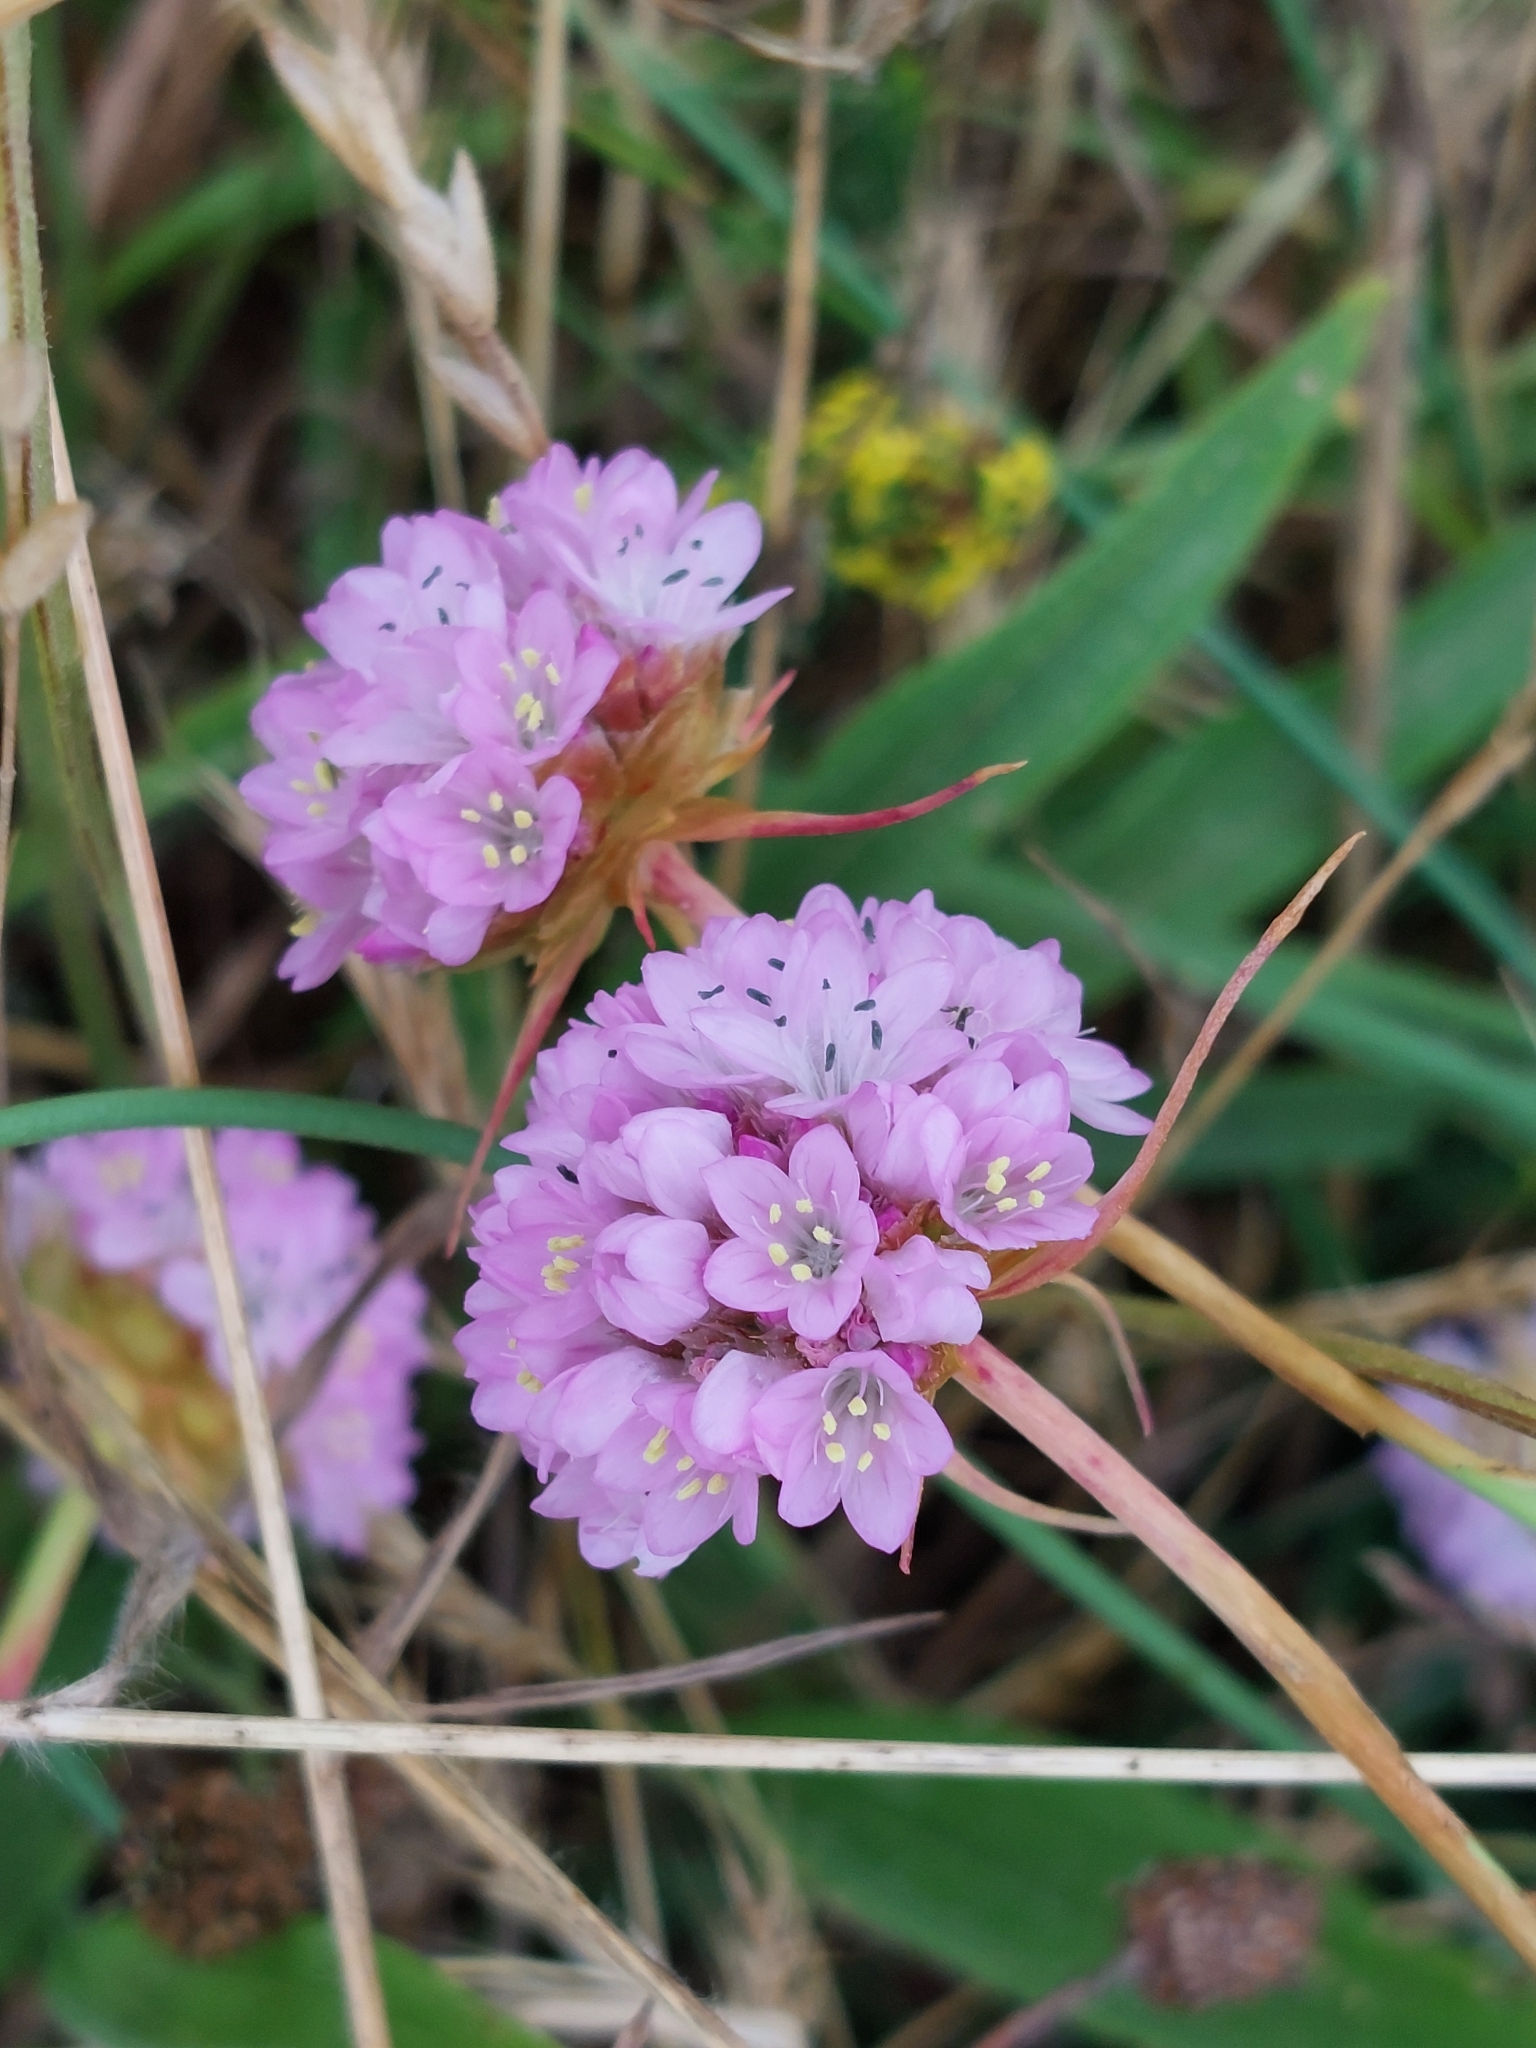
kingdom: Plantae
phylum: Tracheophyta
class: Magnoliopsida
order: Caryophyllales
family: Plumbaginaceae
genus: Armeria
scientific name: Armeria arenaria
